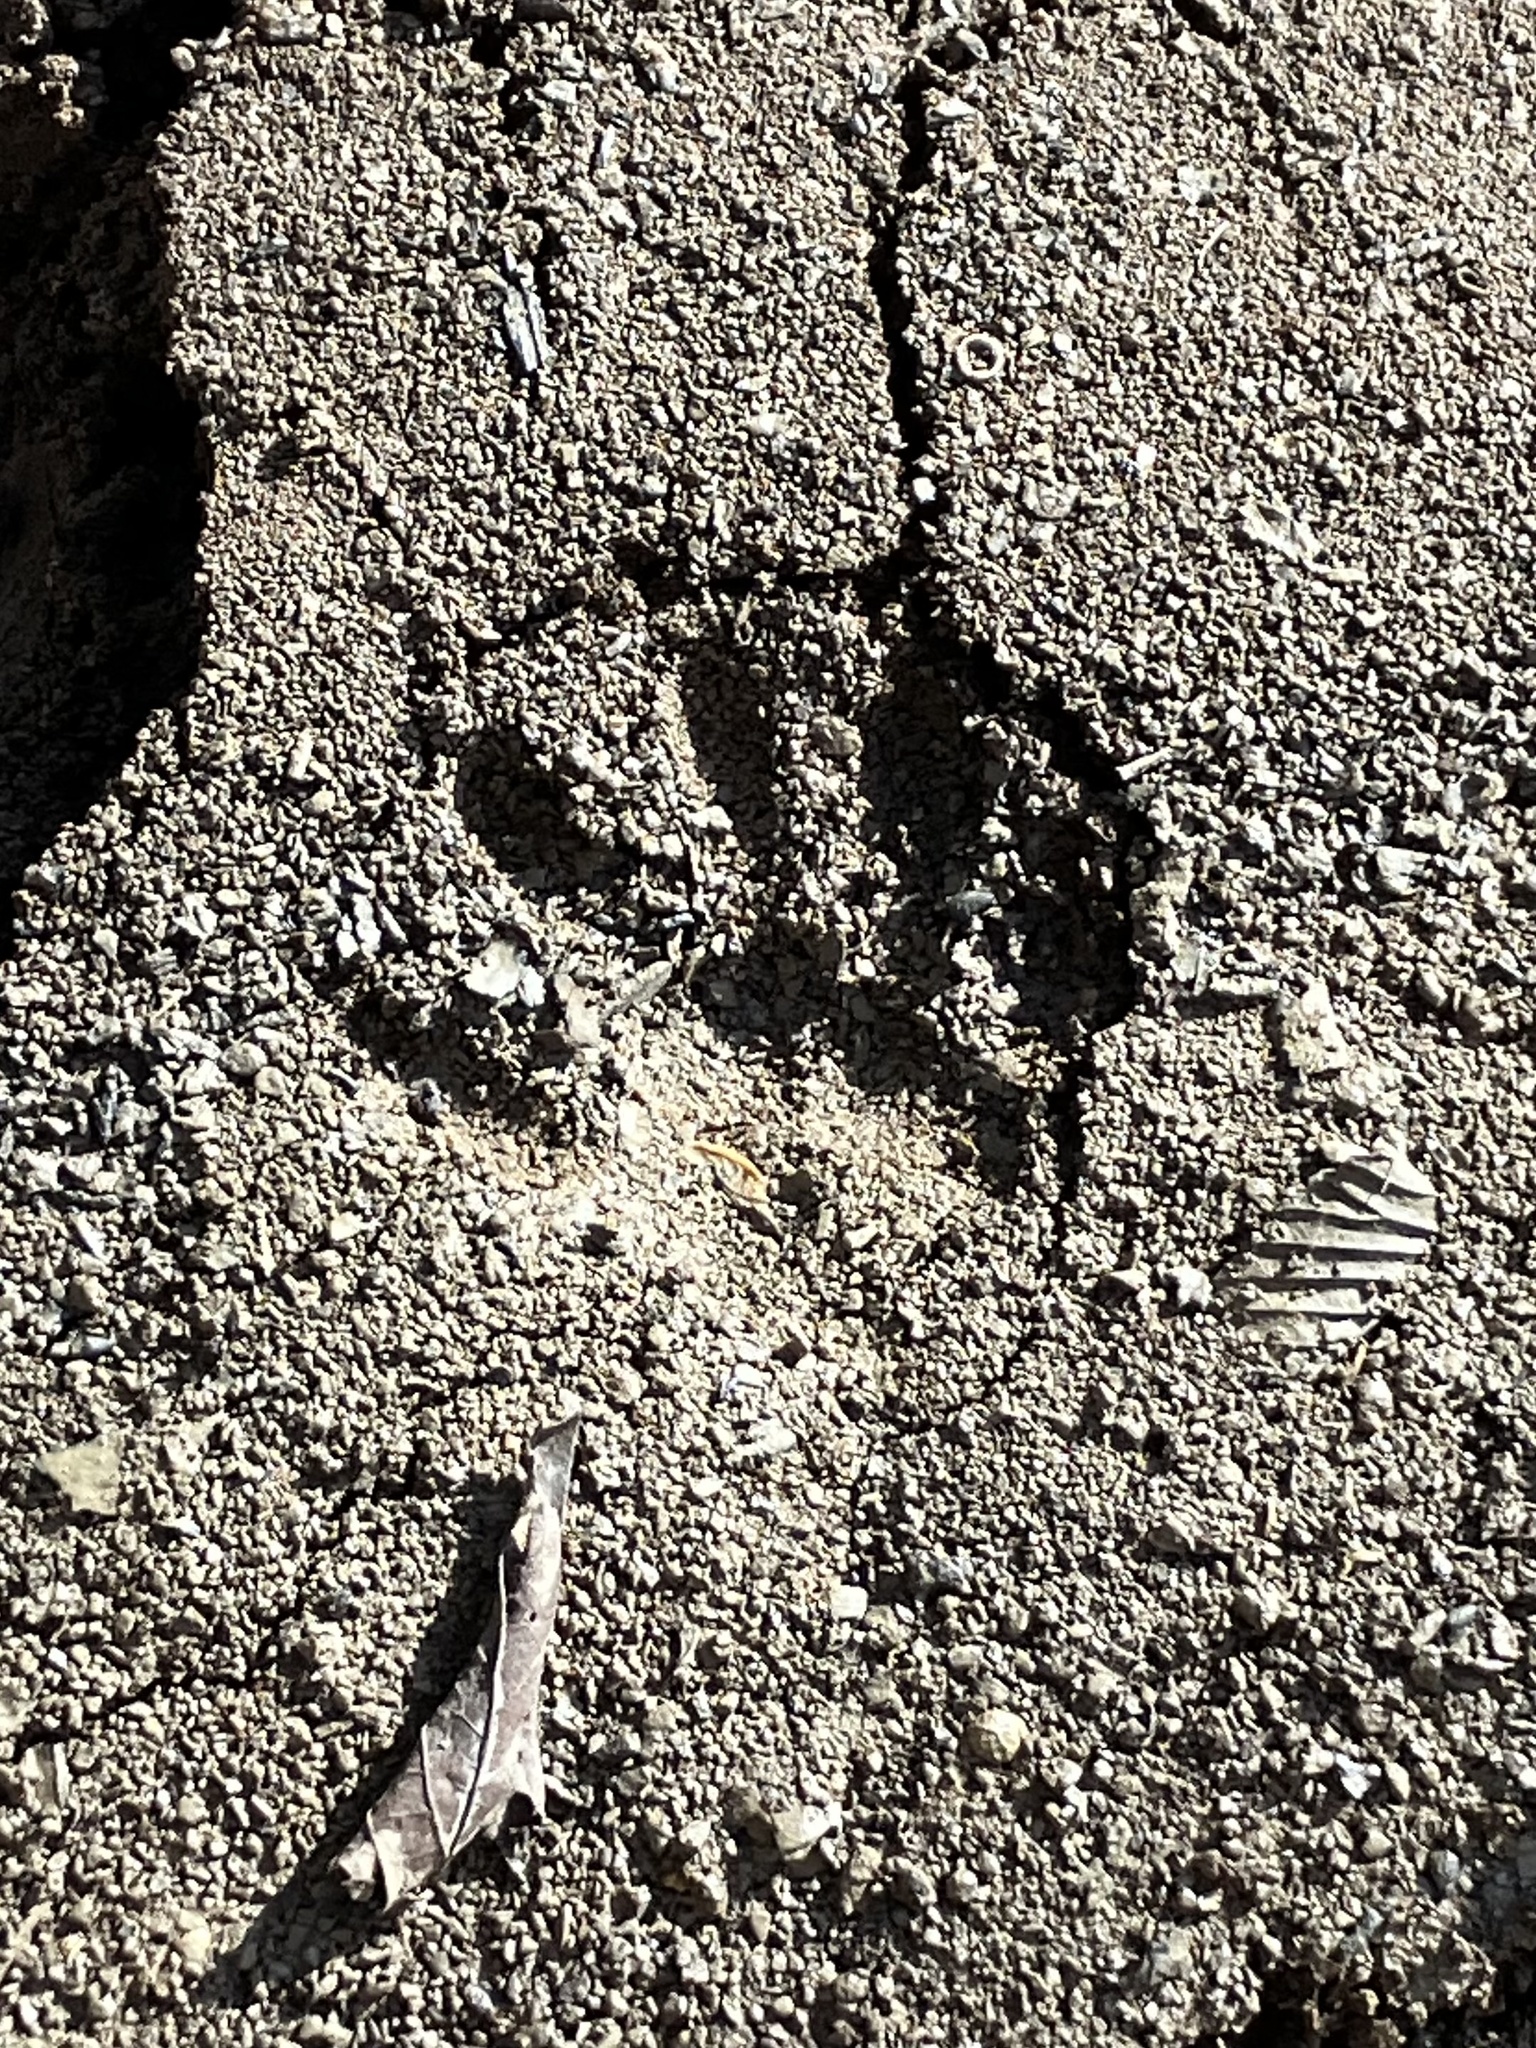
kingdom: Animalia
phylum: Chordata
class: Mammalia
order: Carnivora
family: Procyonidae
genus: Procyon
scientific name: Procyon lotor
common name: Raccoon
